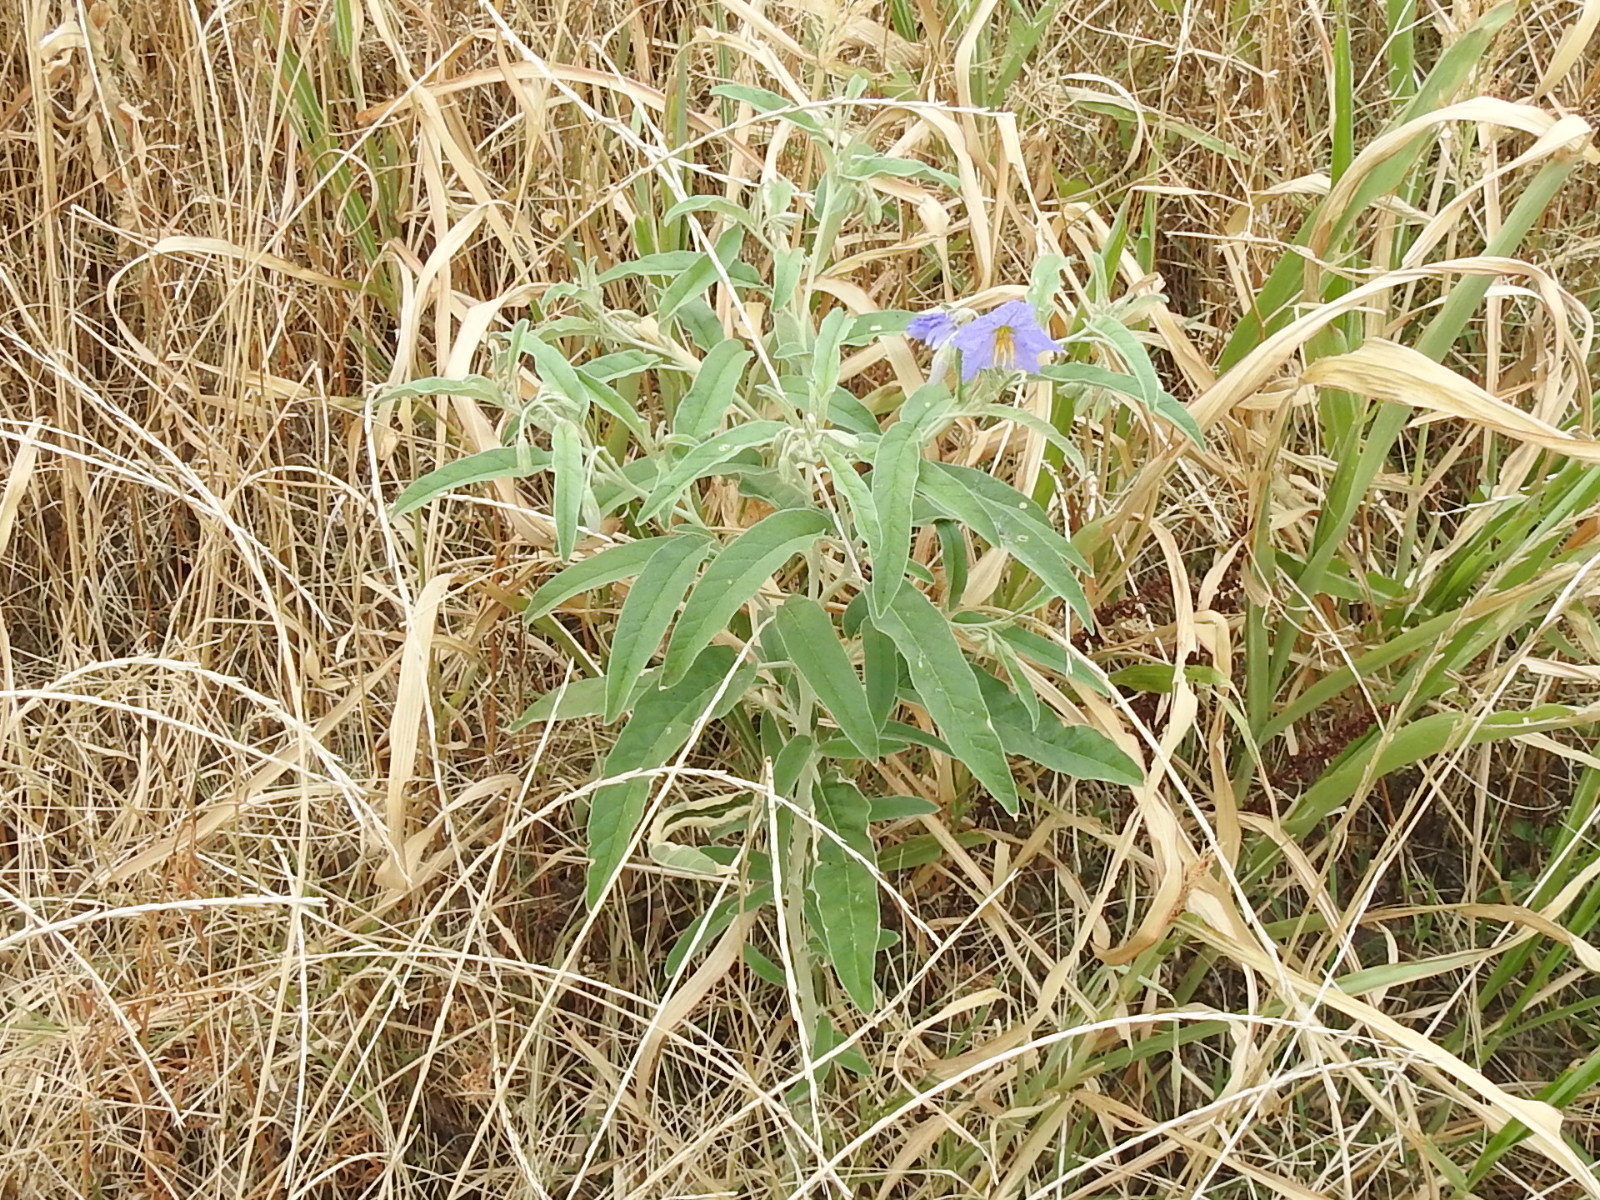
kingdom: Plantae
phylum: Tracheophyta
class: Magnoliopsida
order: Solanales
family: Solanaceae
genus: Solanum
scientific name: Solanum elaeagnifolium
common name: Silverleaf nightshade
